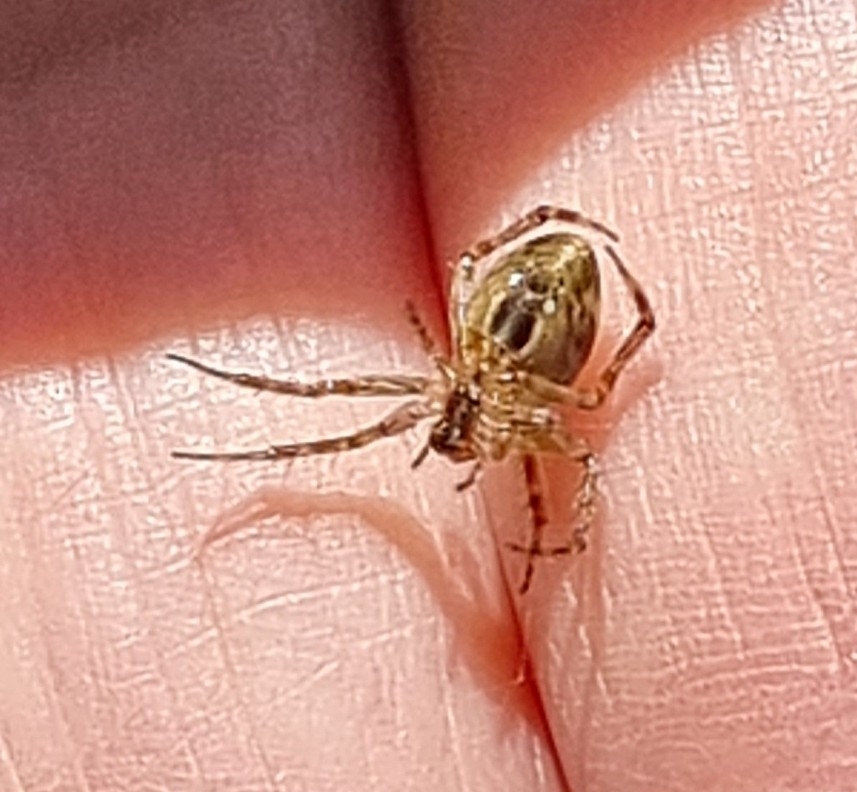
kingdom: Animalia
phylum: Arthropoda
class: Arachnida
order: Araneae
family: Araneidae
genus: Plebs
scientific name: Plebs eburnus
